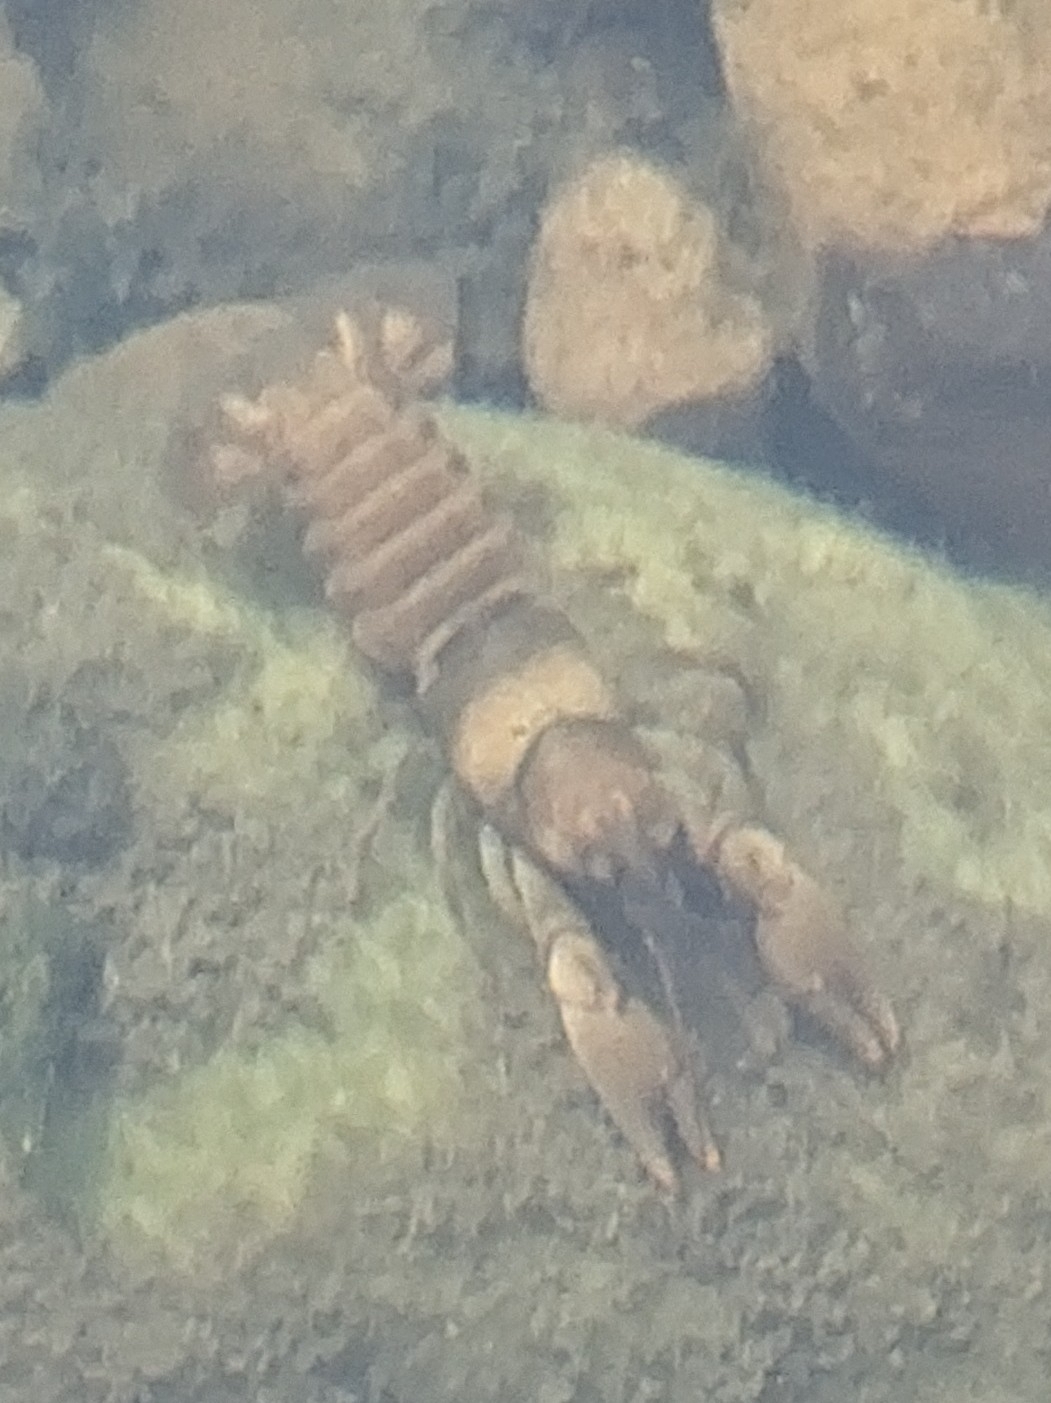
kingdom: Animalia
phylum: Arthropoda
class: Malacostraca
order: Decapoda
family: Cambaridae
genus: Faxonius
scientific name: Faxonius luteus
